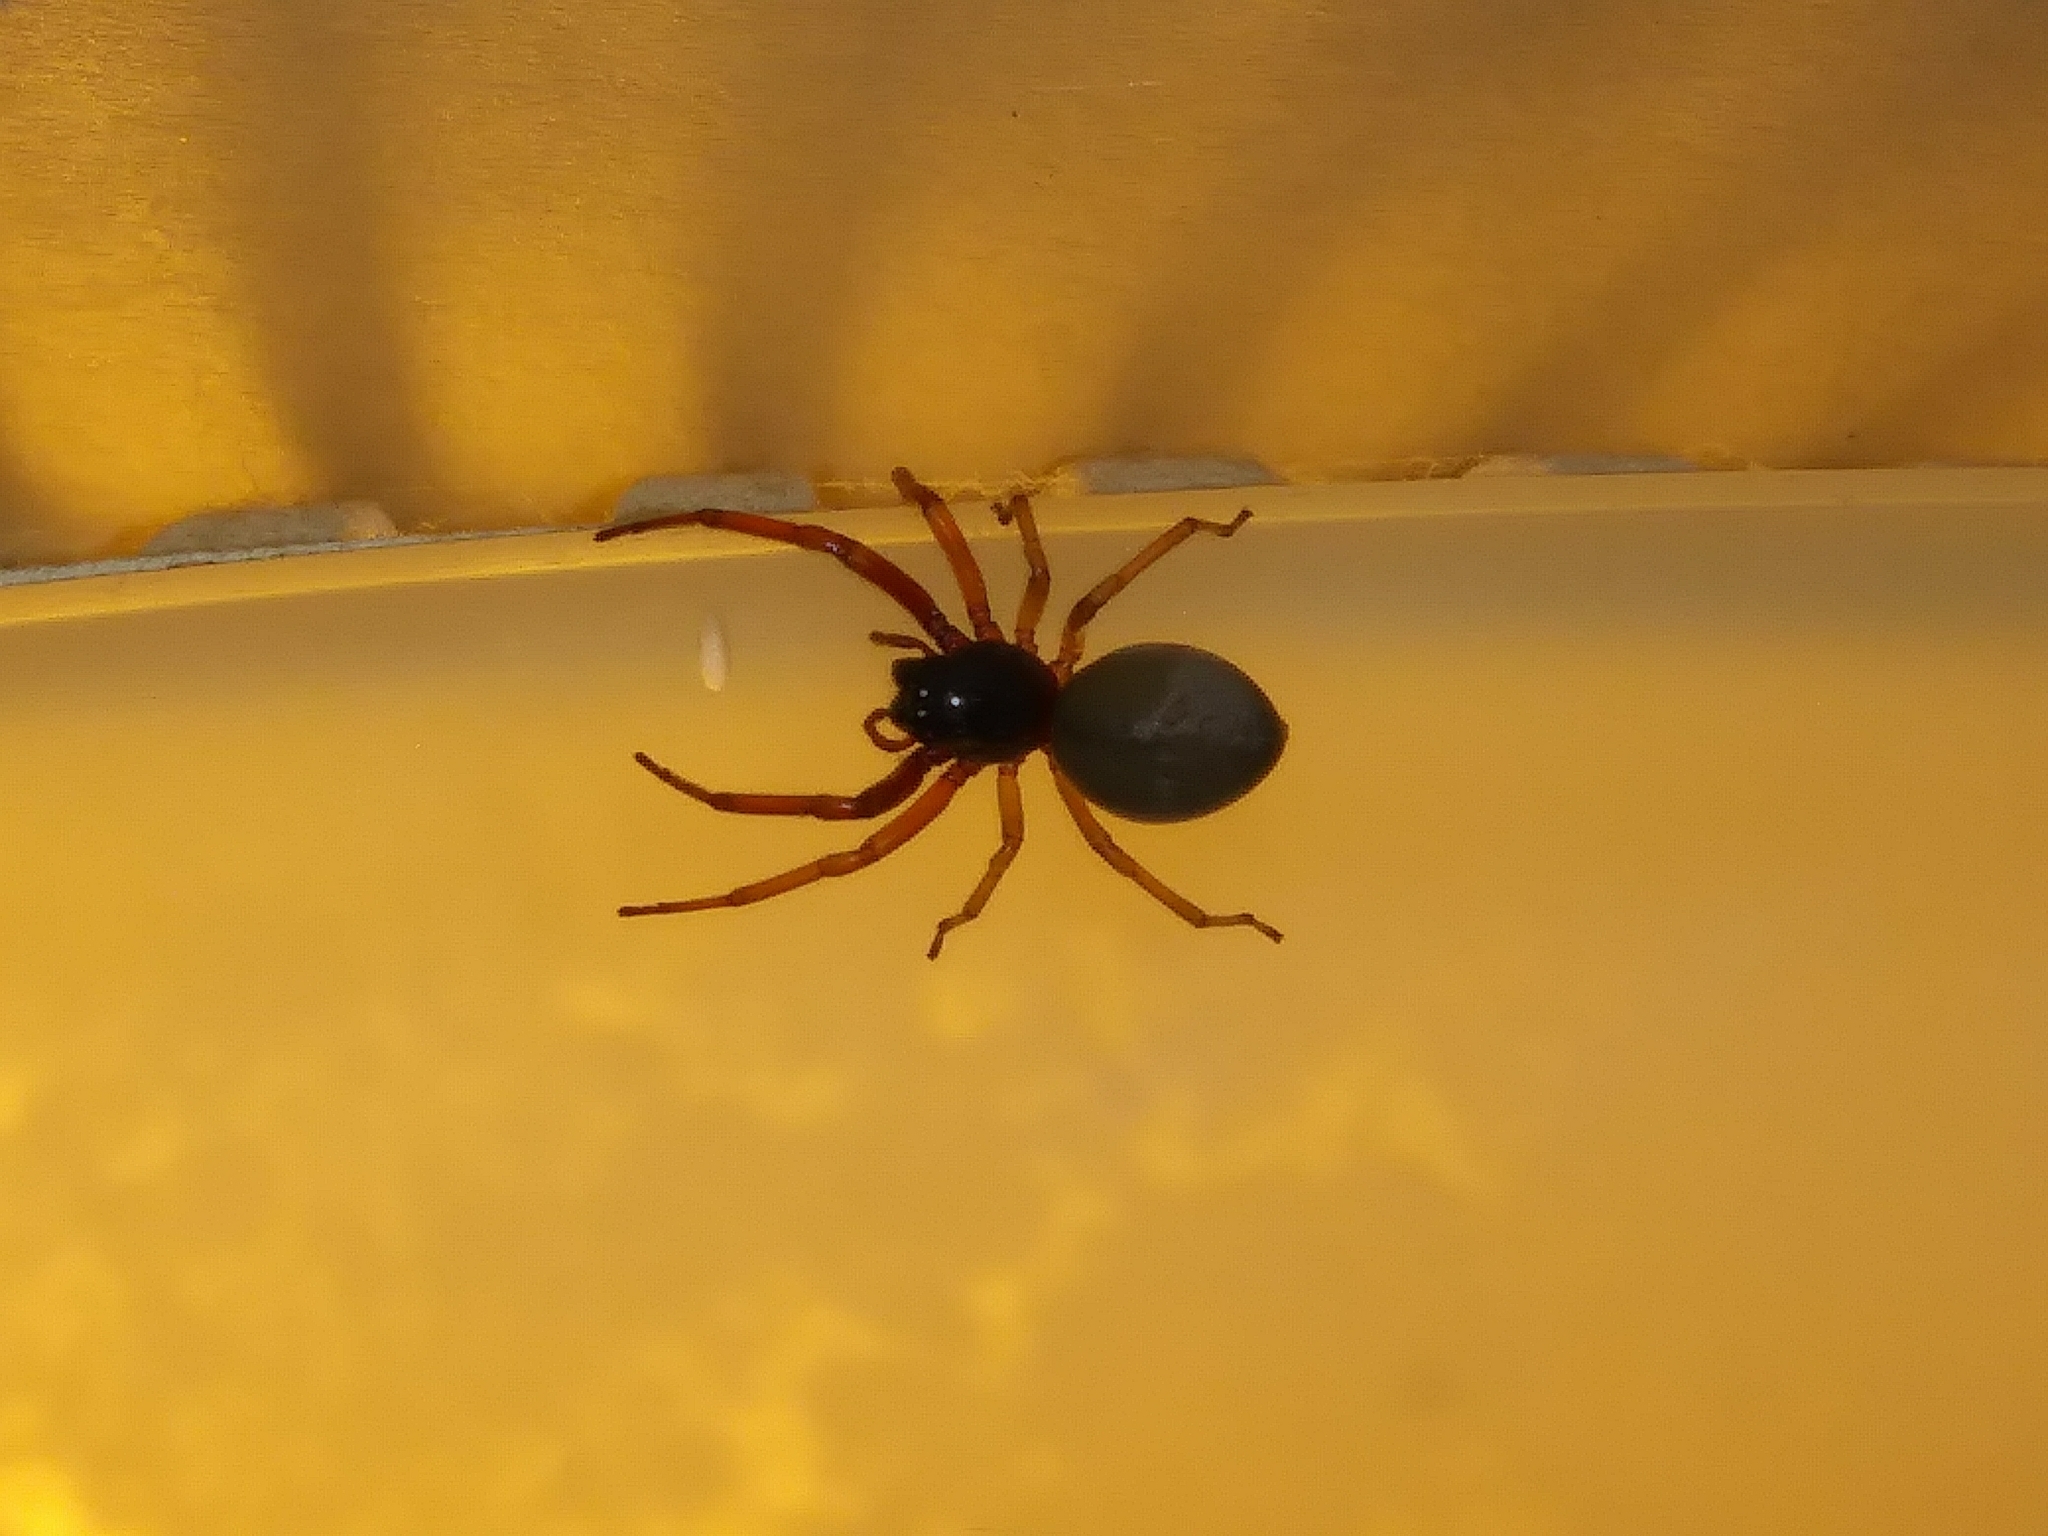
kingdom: Animalia
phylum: Arthropoda
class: Arachnida
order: Araneae
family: Trachelidae
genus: Trachelas
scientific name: Trachelas tranquillus
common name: Broad-faced sac spider
